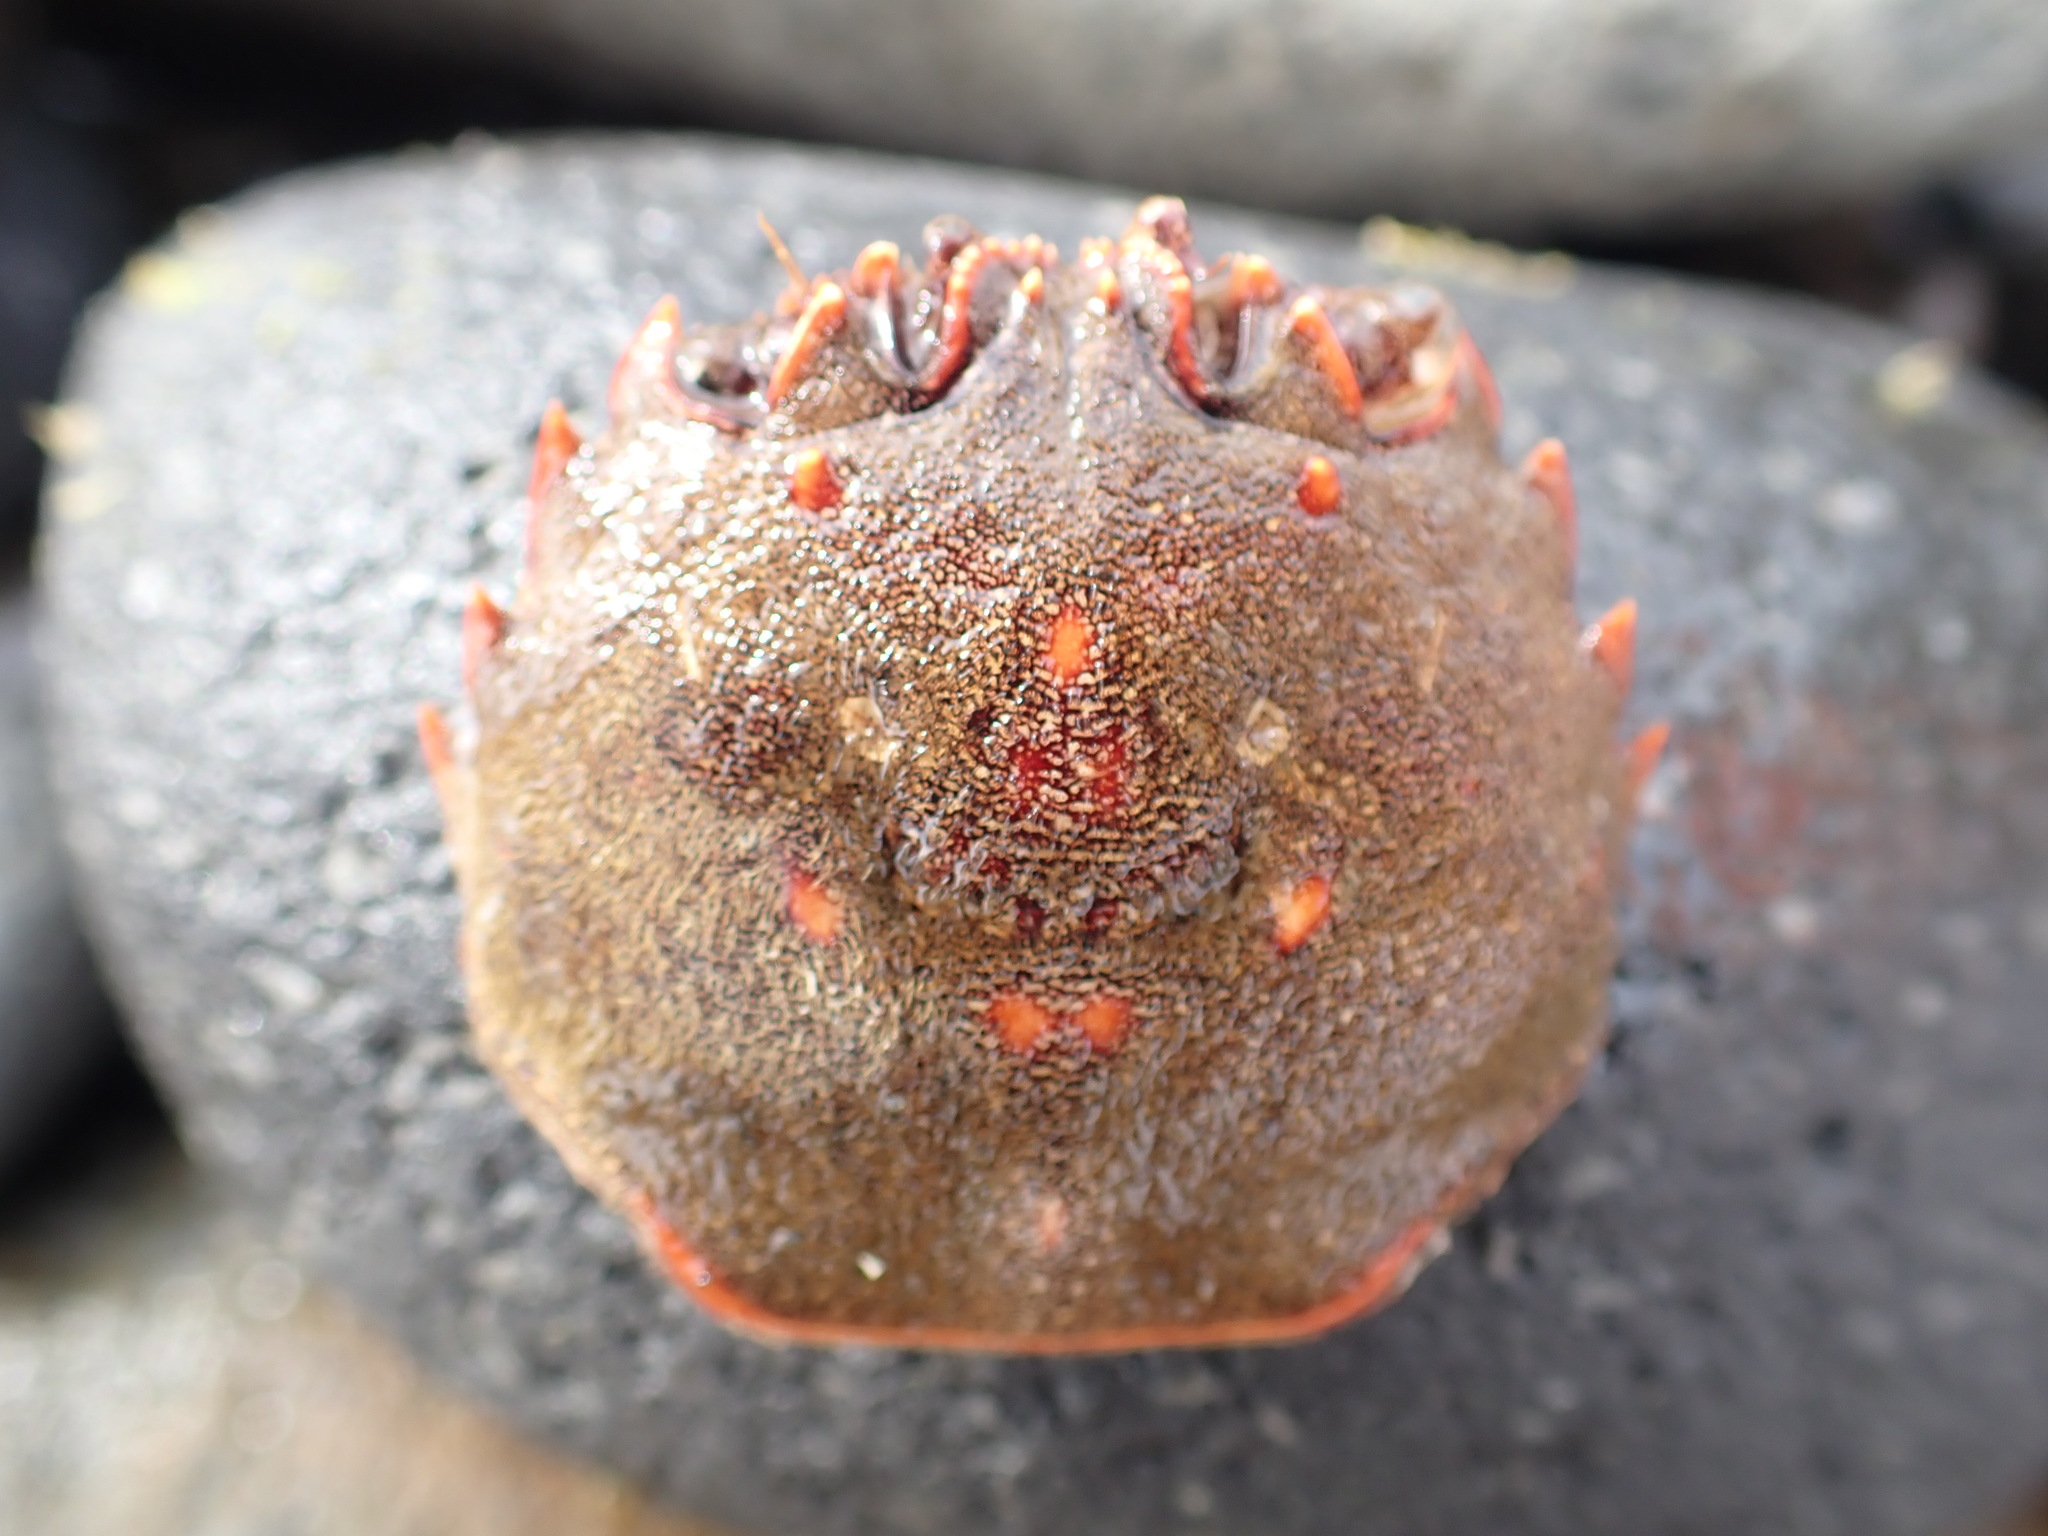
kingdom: Animalia
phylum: Arthropoda
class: Malacostraca
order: Decapoda
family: Plagusiidae
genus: Guinusia
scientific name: Guinusia chabrus
